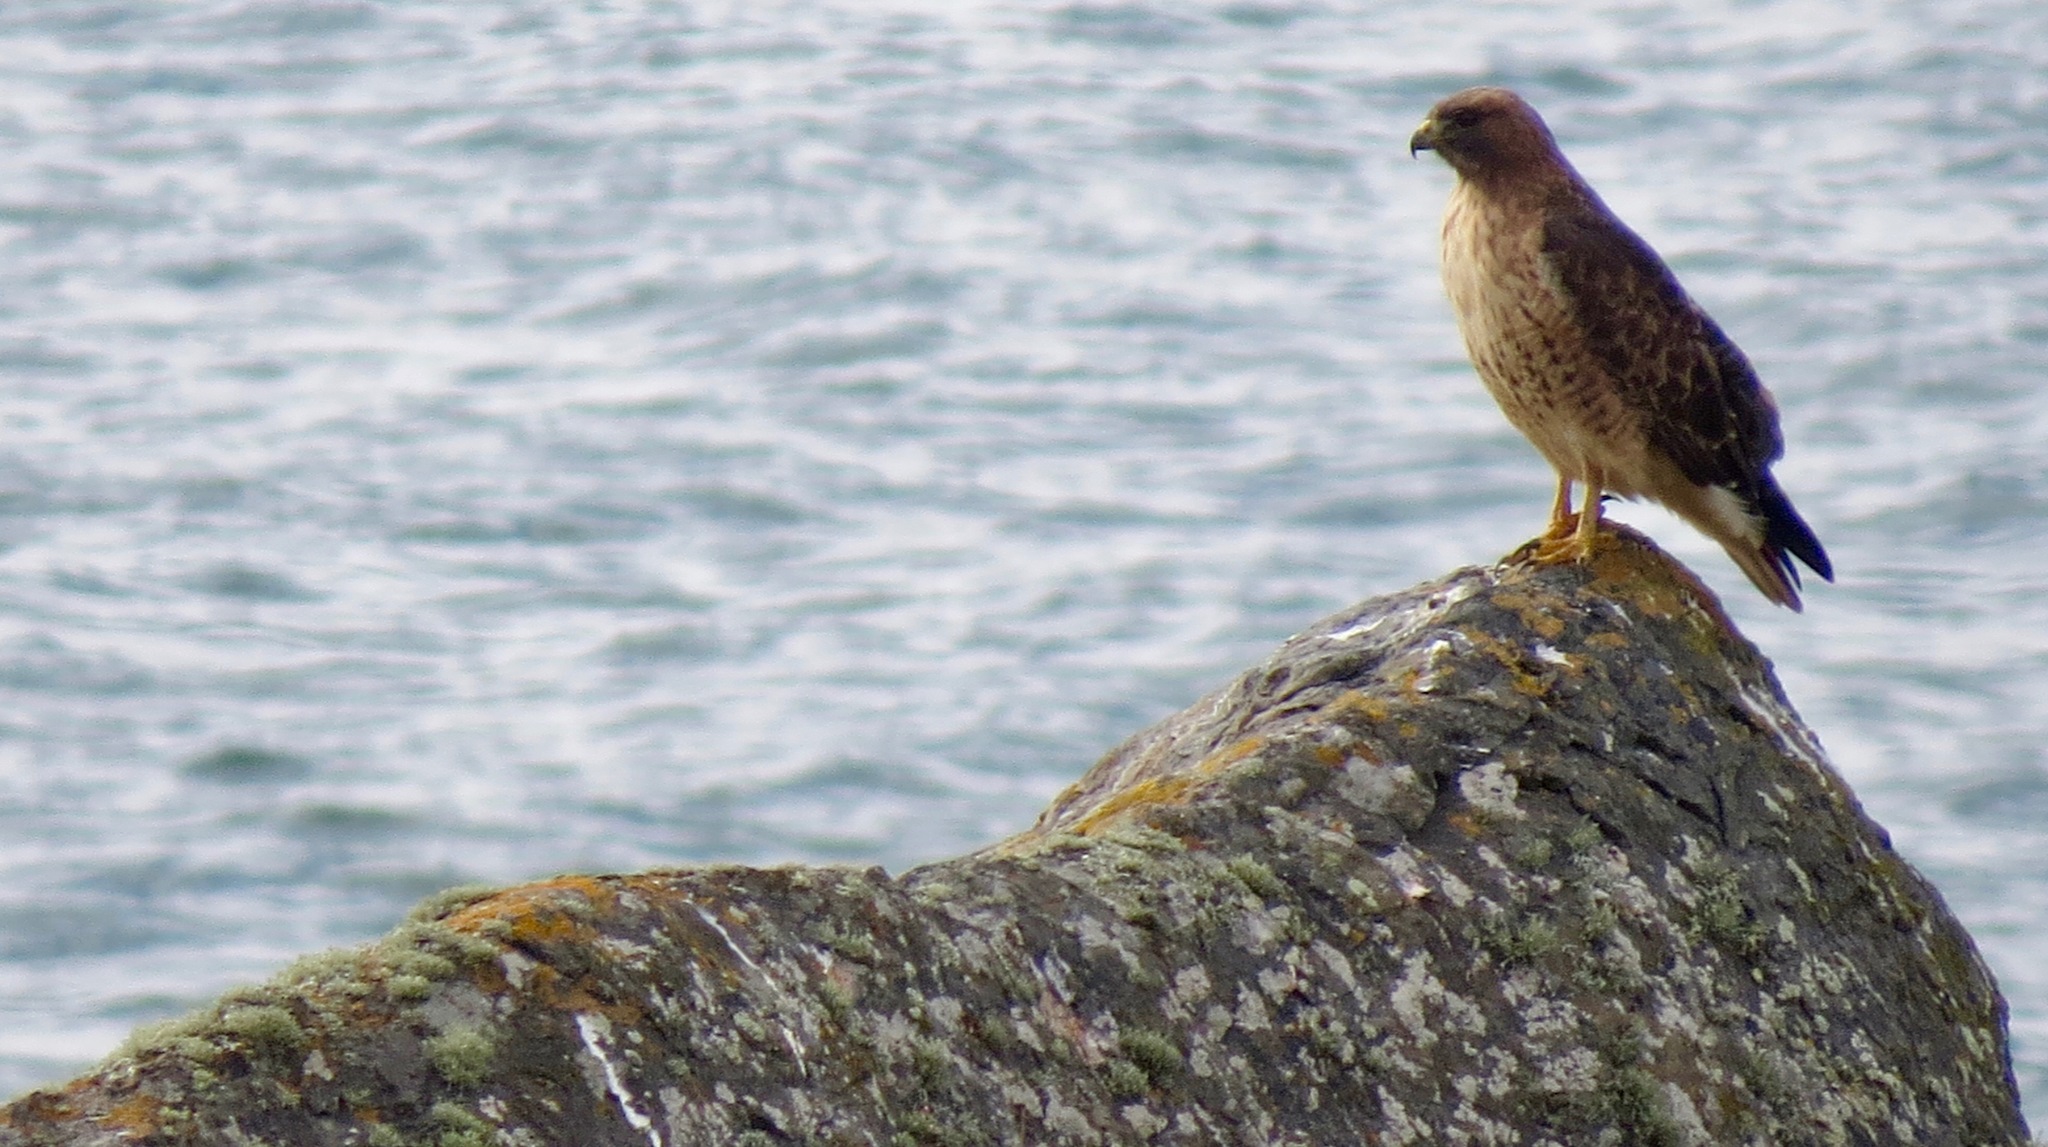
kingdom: Animalia
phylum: Chordata
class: Aves
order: Accipitriformes
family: Accipitridae
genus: Buteo
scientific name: Buteo jamaicensis
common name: Red-tailed hawk
